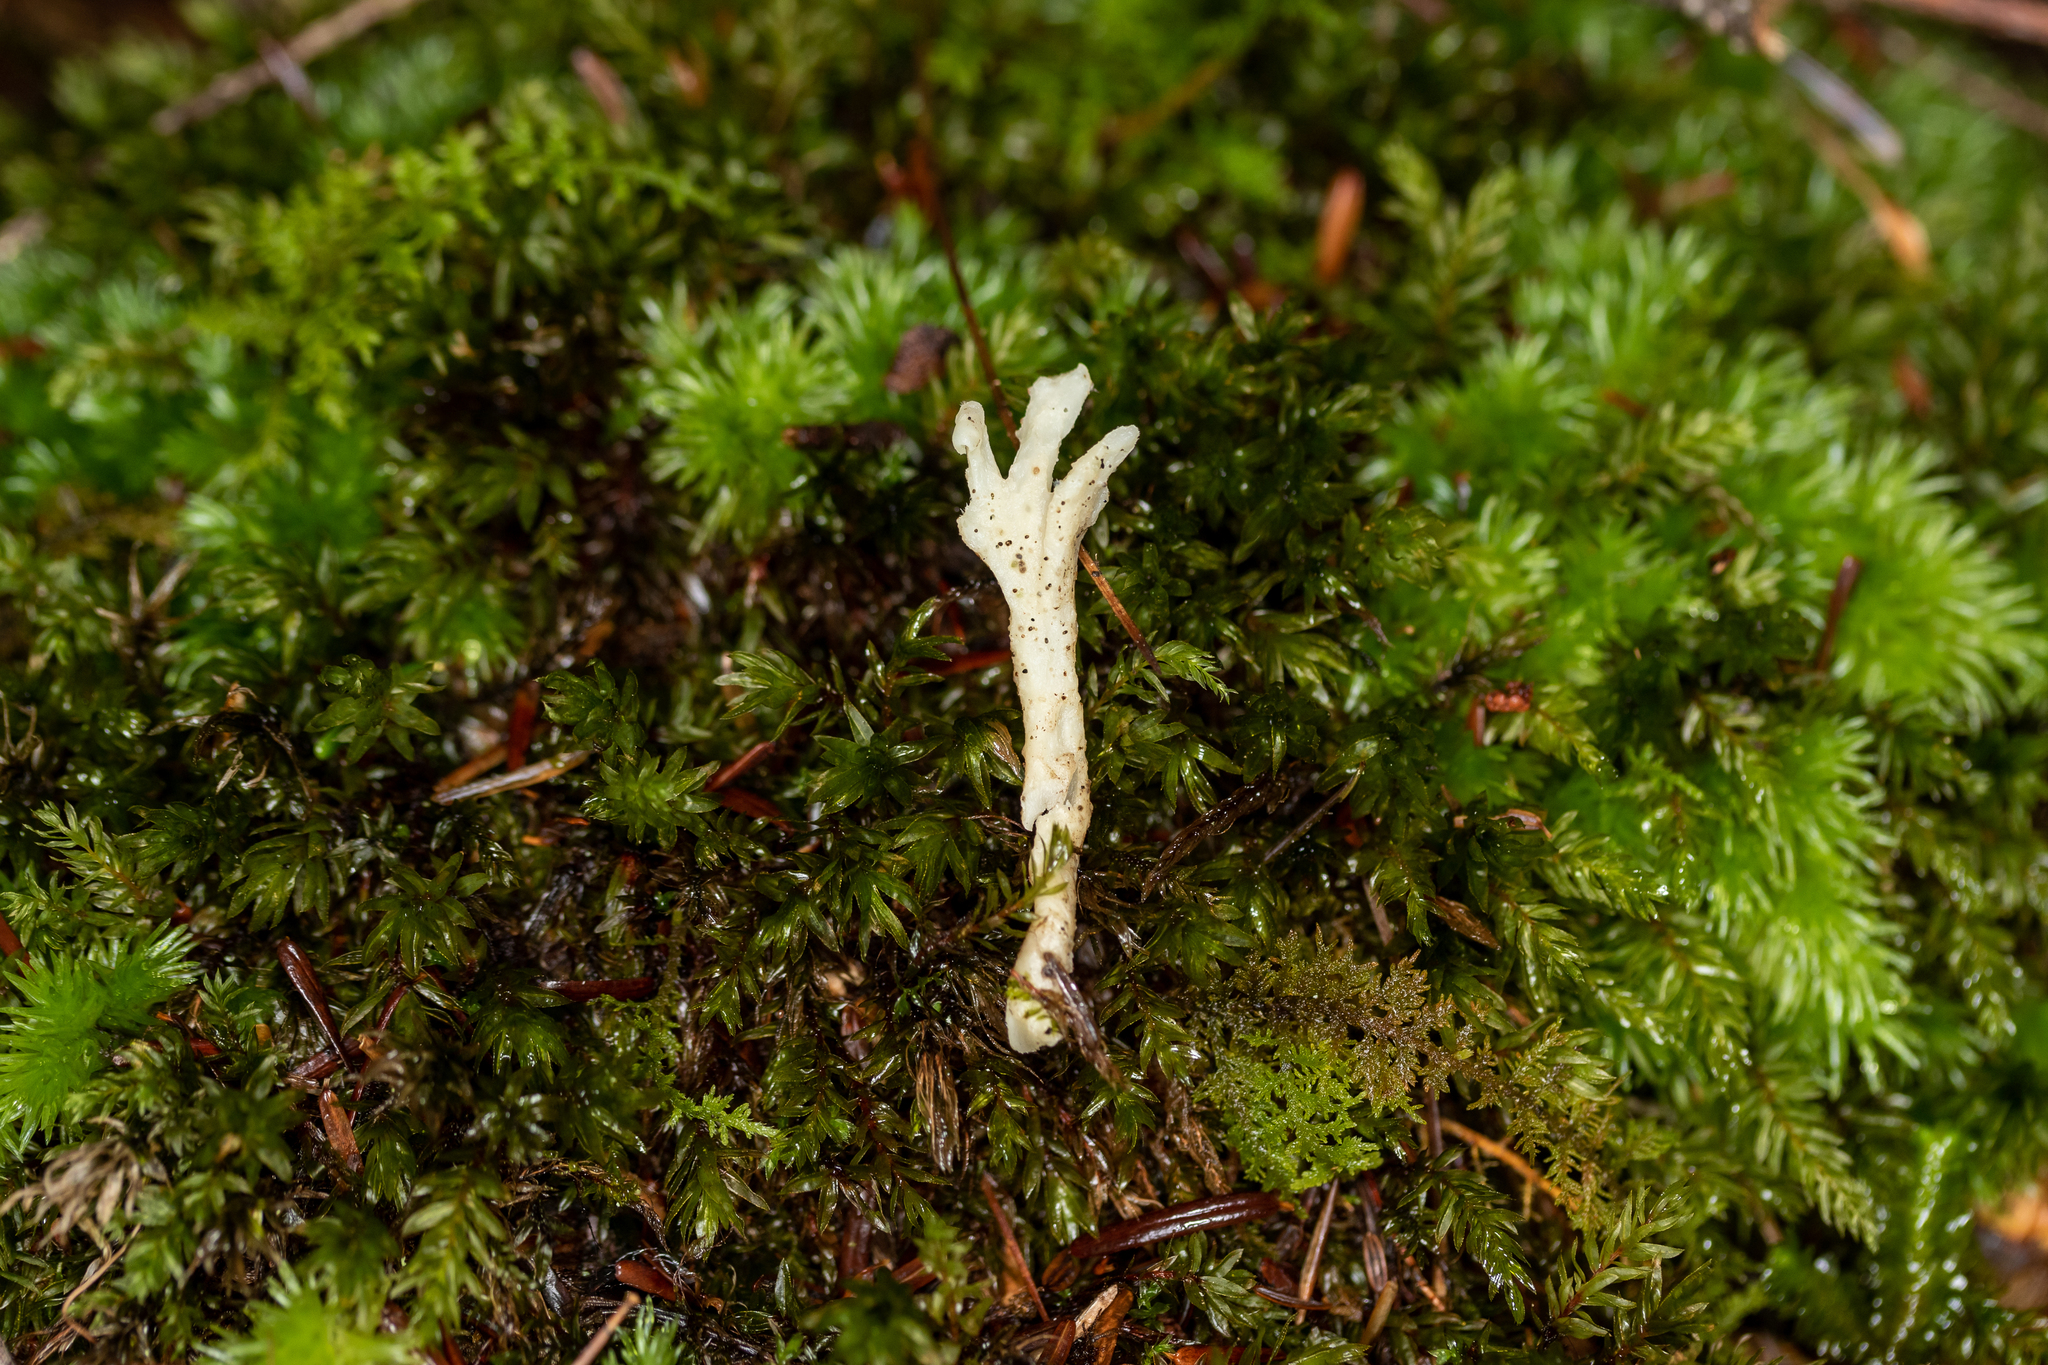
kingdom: Fungi
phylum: Basidiomycota
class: Agaricomycetes
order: Cantharellales
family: Hydnaceae
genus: Clavulina
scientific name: Clavulina coralloides
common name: Crested coral
